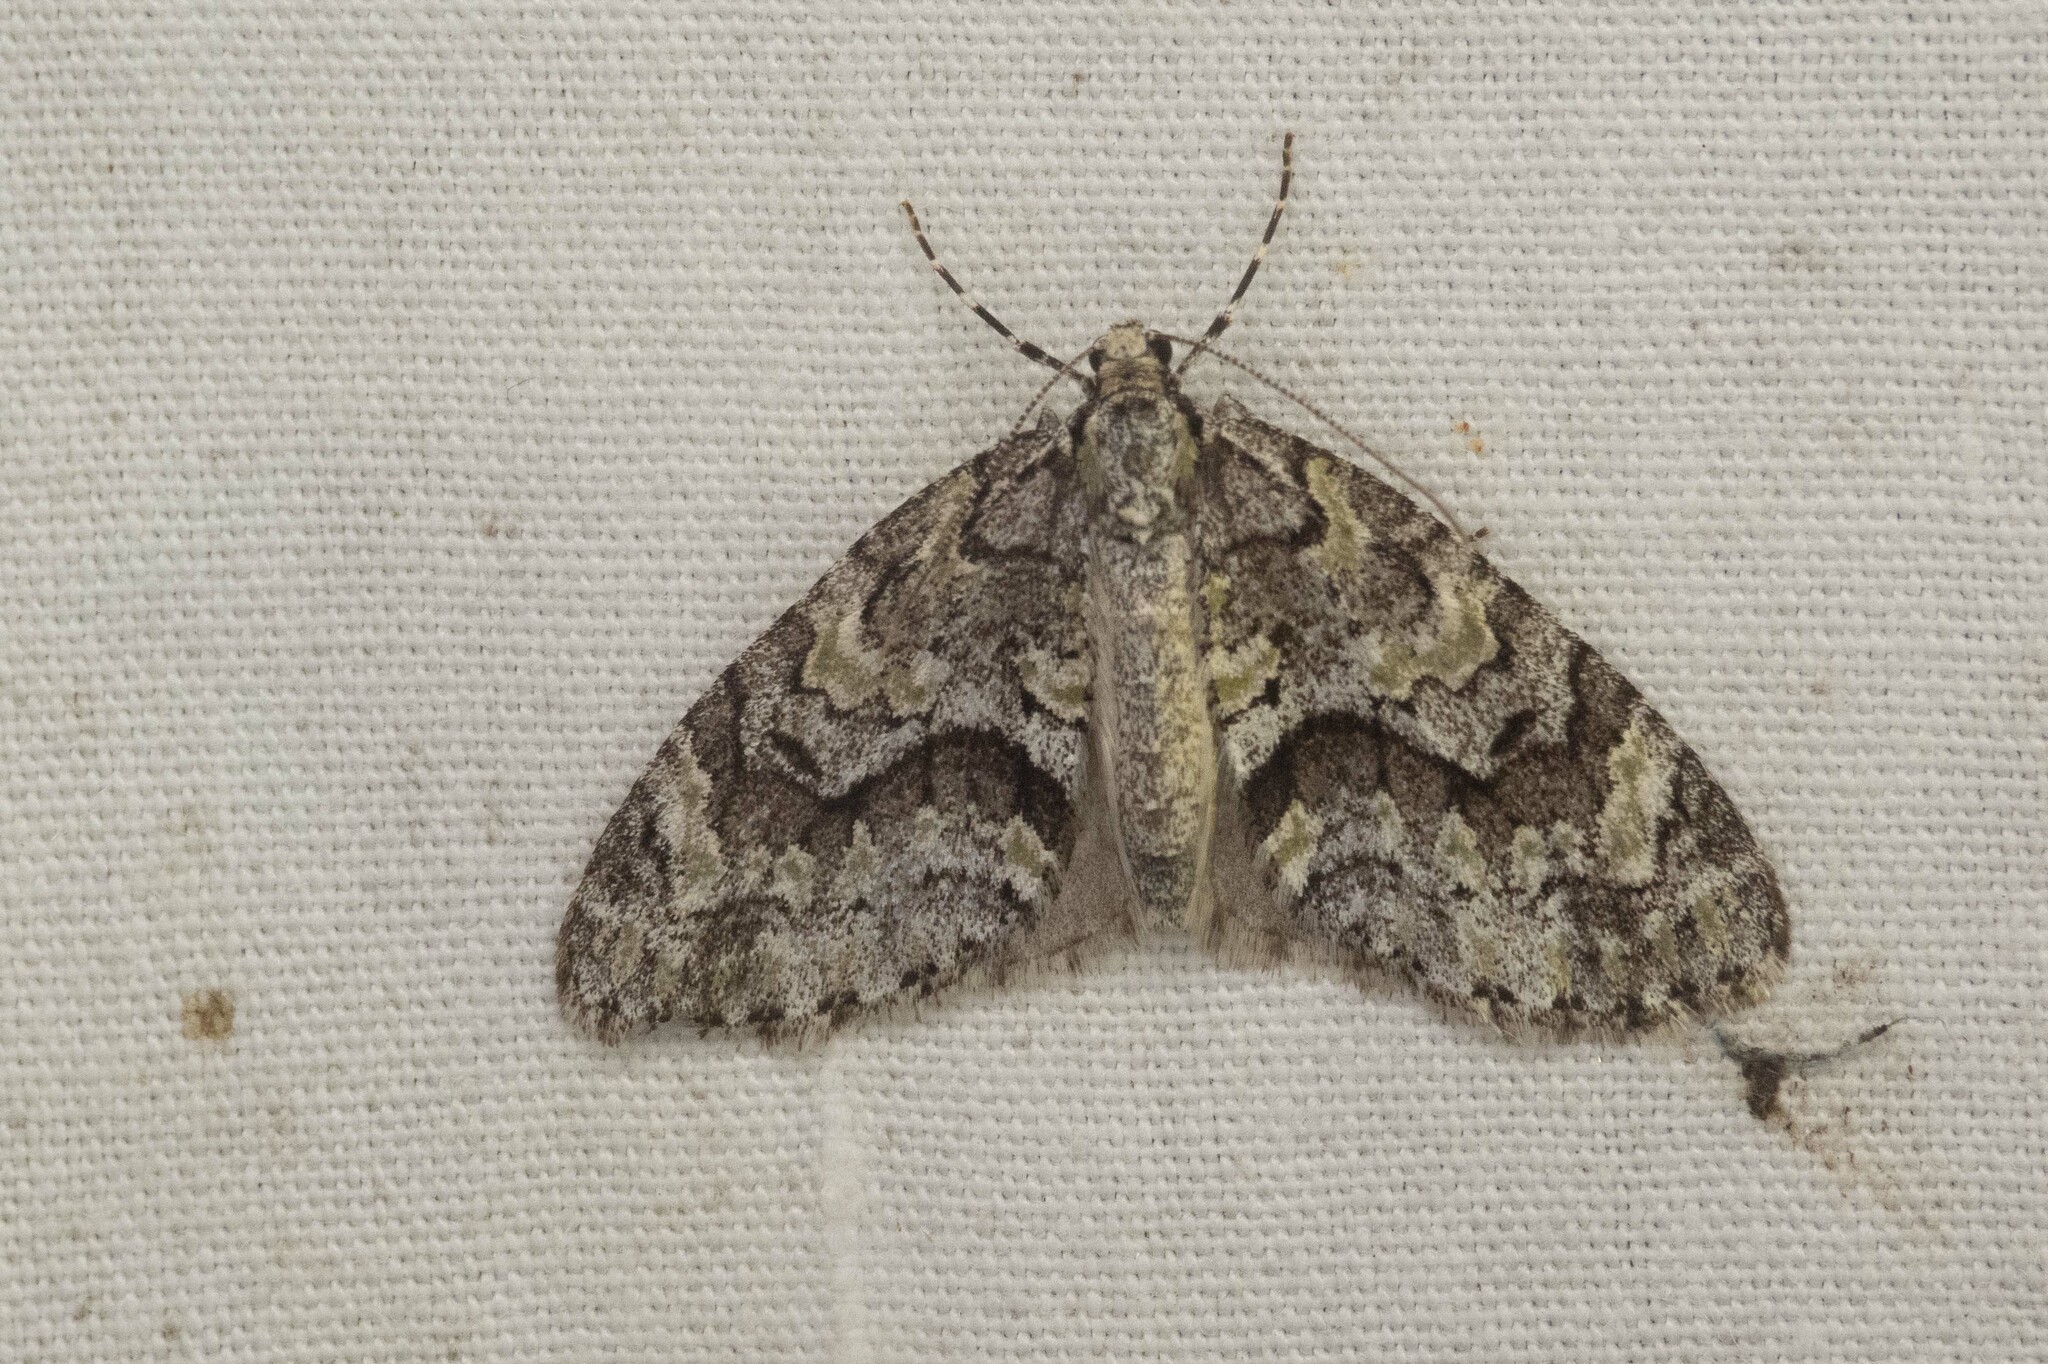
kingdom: Animalia
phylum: Arthropoda
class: Insecta
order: Lepidoptera
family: Geometridae
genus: Cladara
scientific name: Cladara limitaria
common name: Mottled gray carpet
